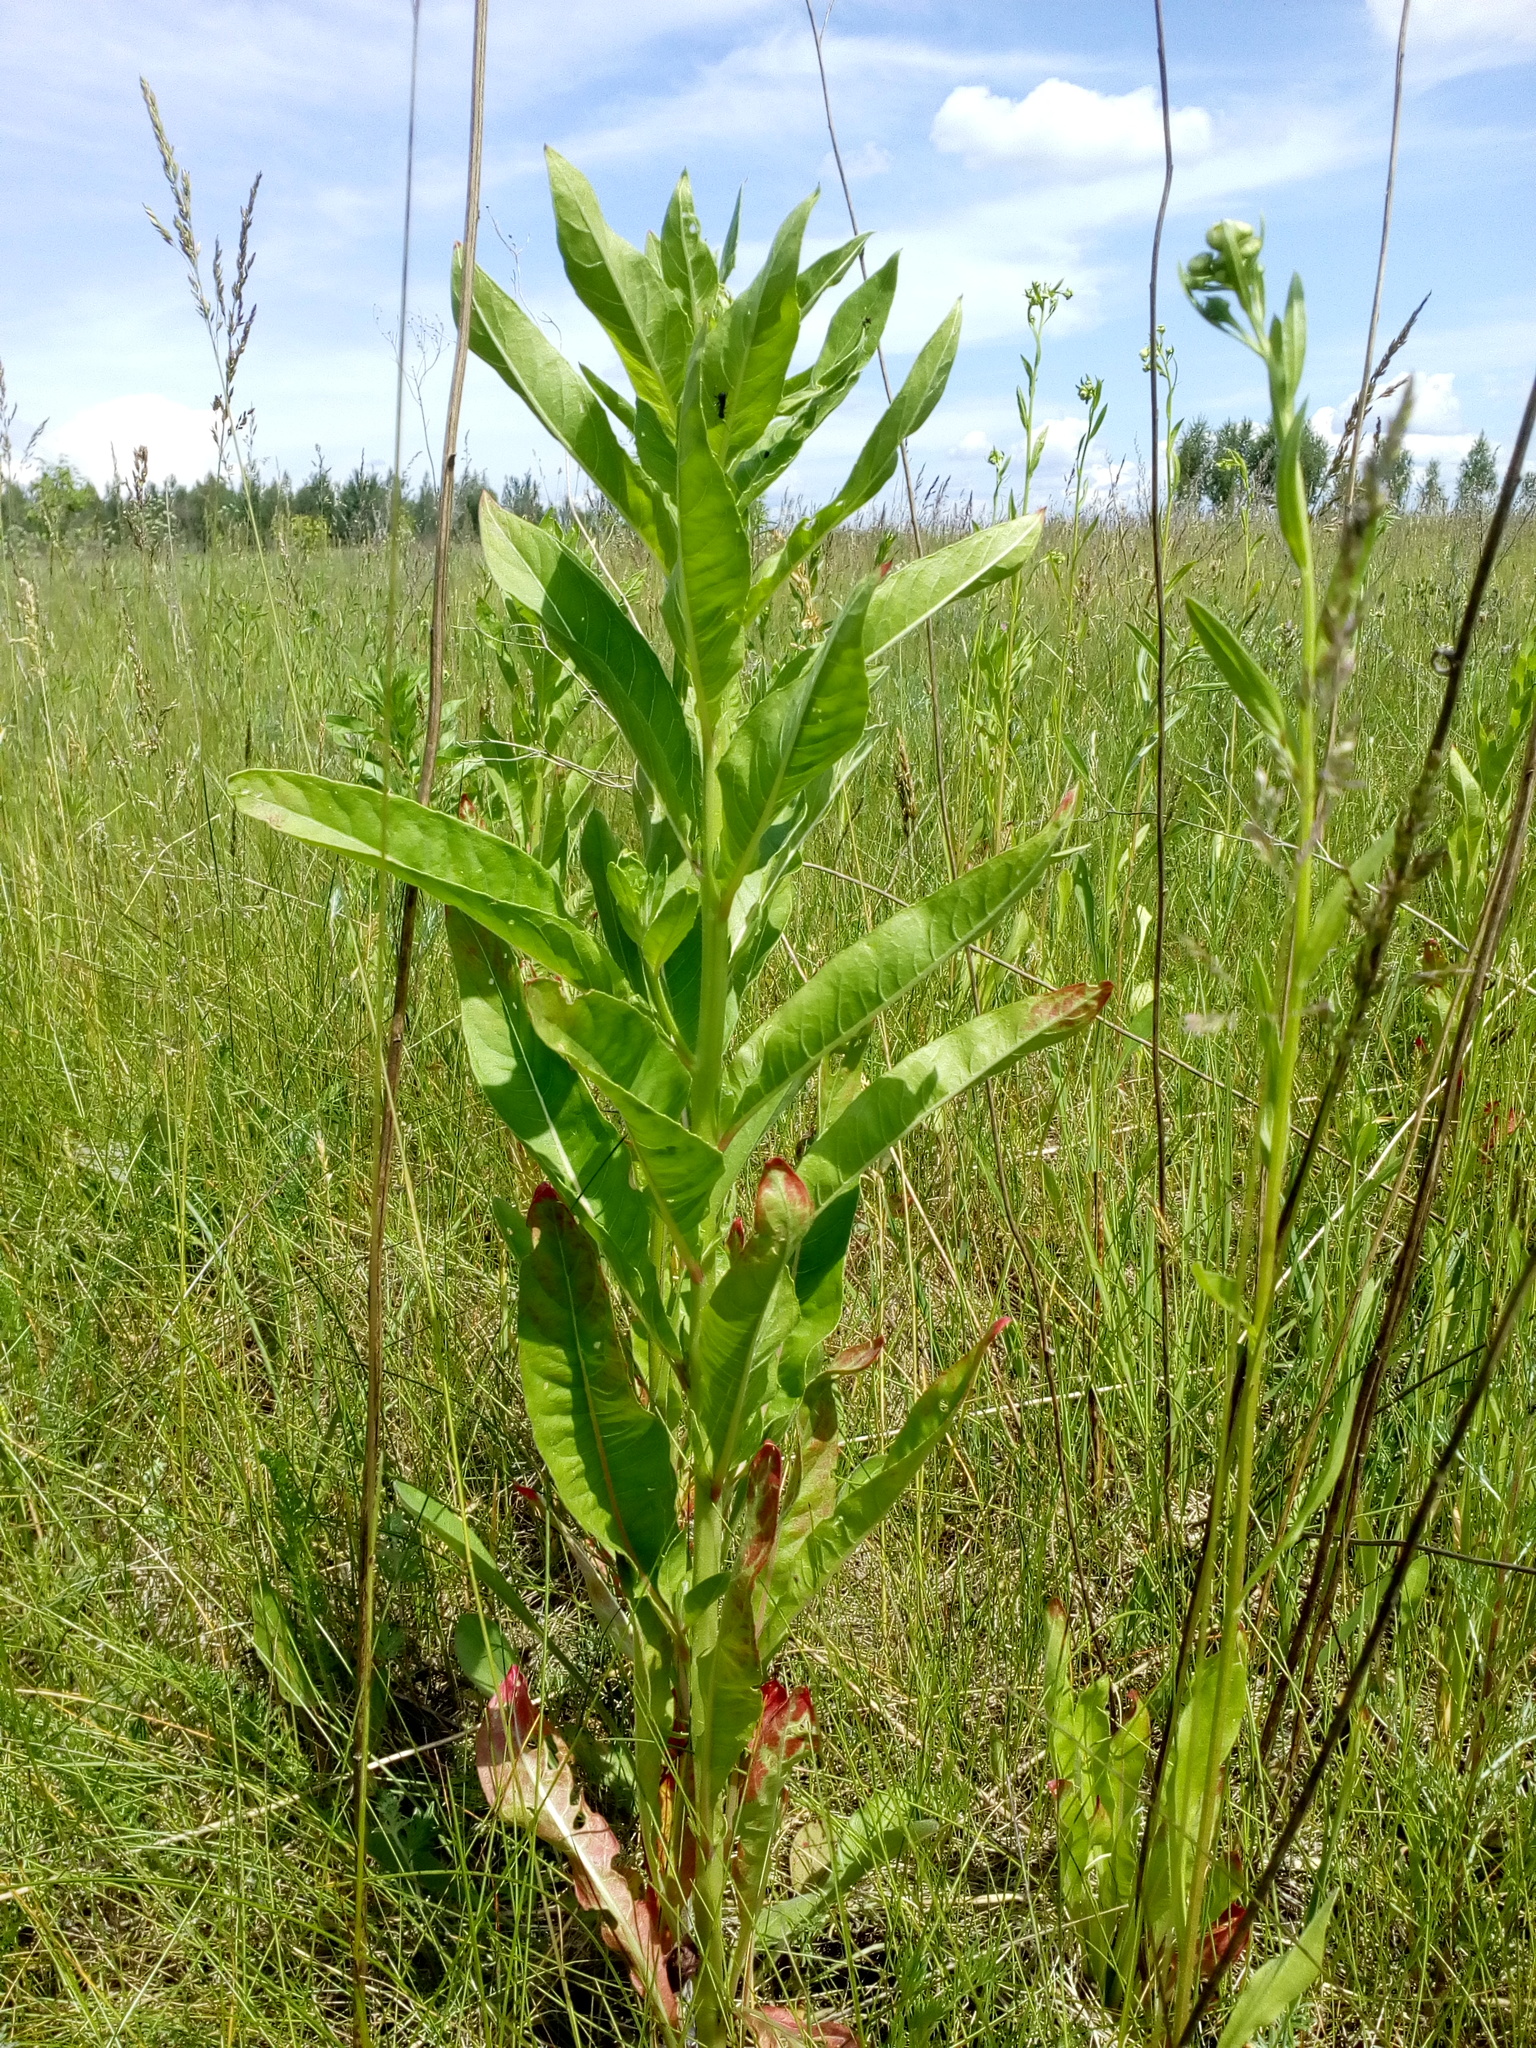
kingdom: Plantae
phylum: Tracheophyta
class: Magnoliopsida
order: Myrtales
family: Onagraceae
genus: Oenothera
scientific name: Oenothera biennis
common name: Common evening-primrose
